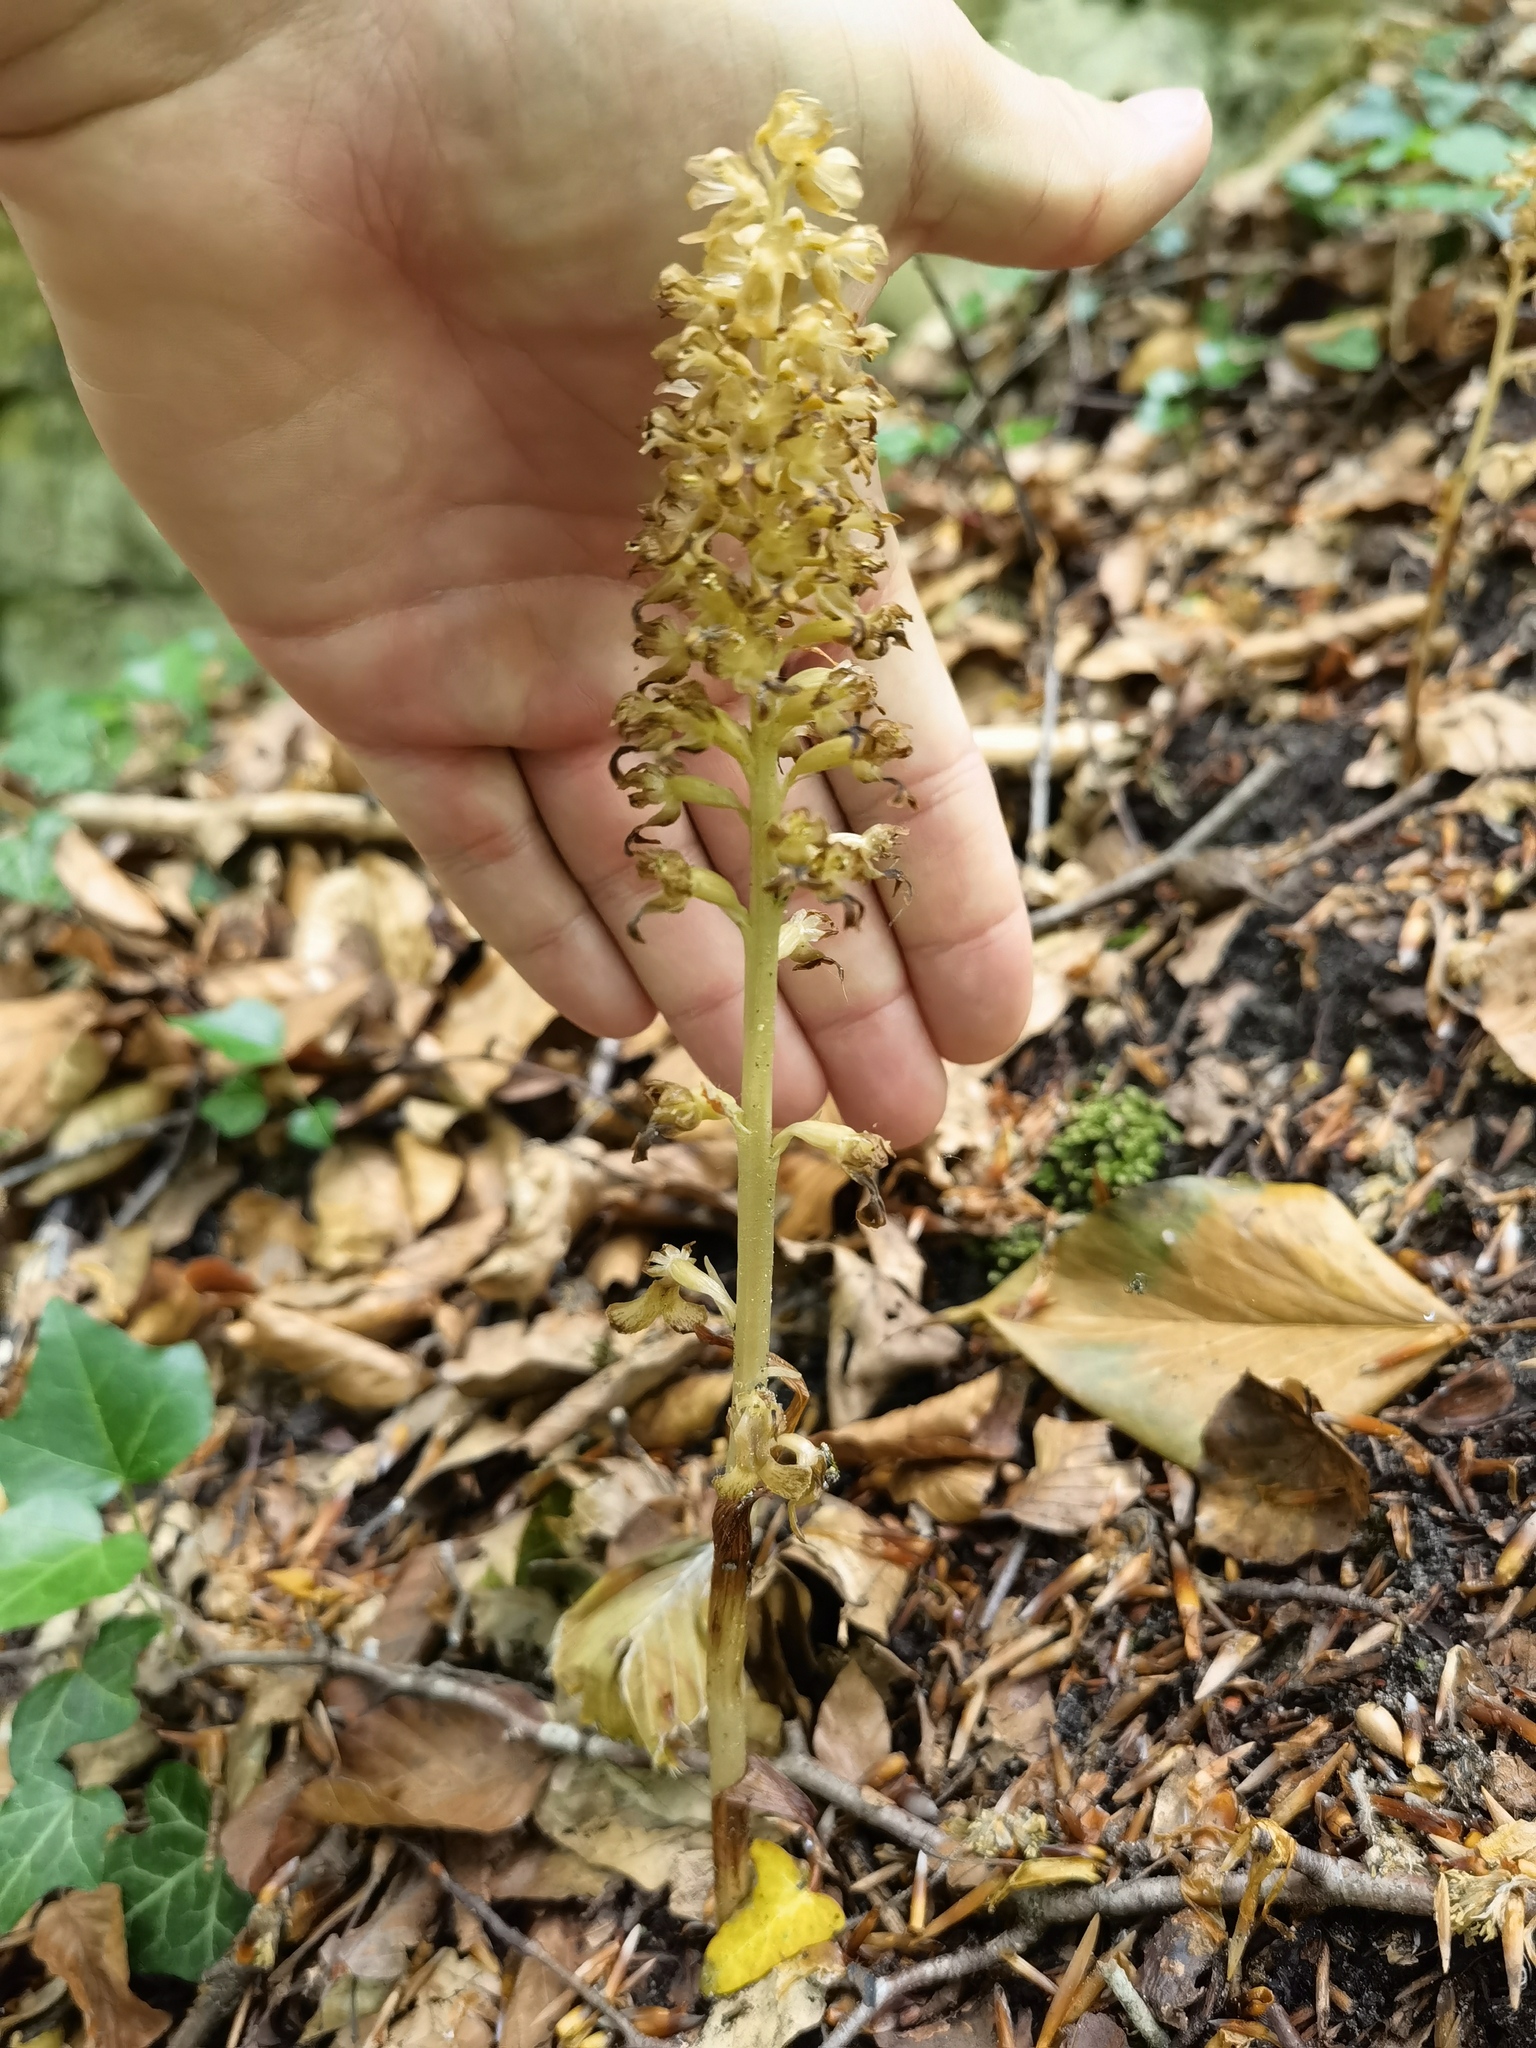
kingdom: Plantae
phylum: Tracheophyta
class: Liliopsida
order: Asparagales
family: Orchidaceae
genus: Neottia
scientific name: Neottia nidus-avis
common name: Bird's-nest orchid
